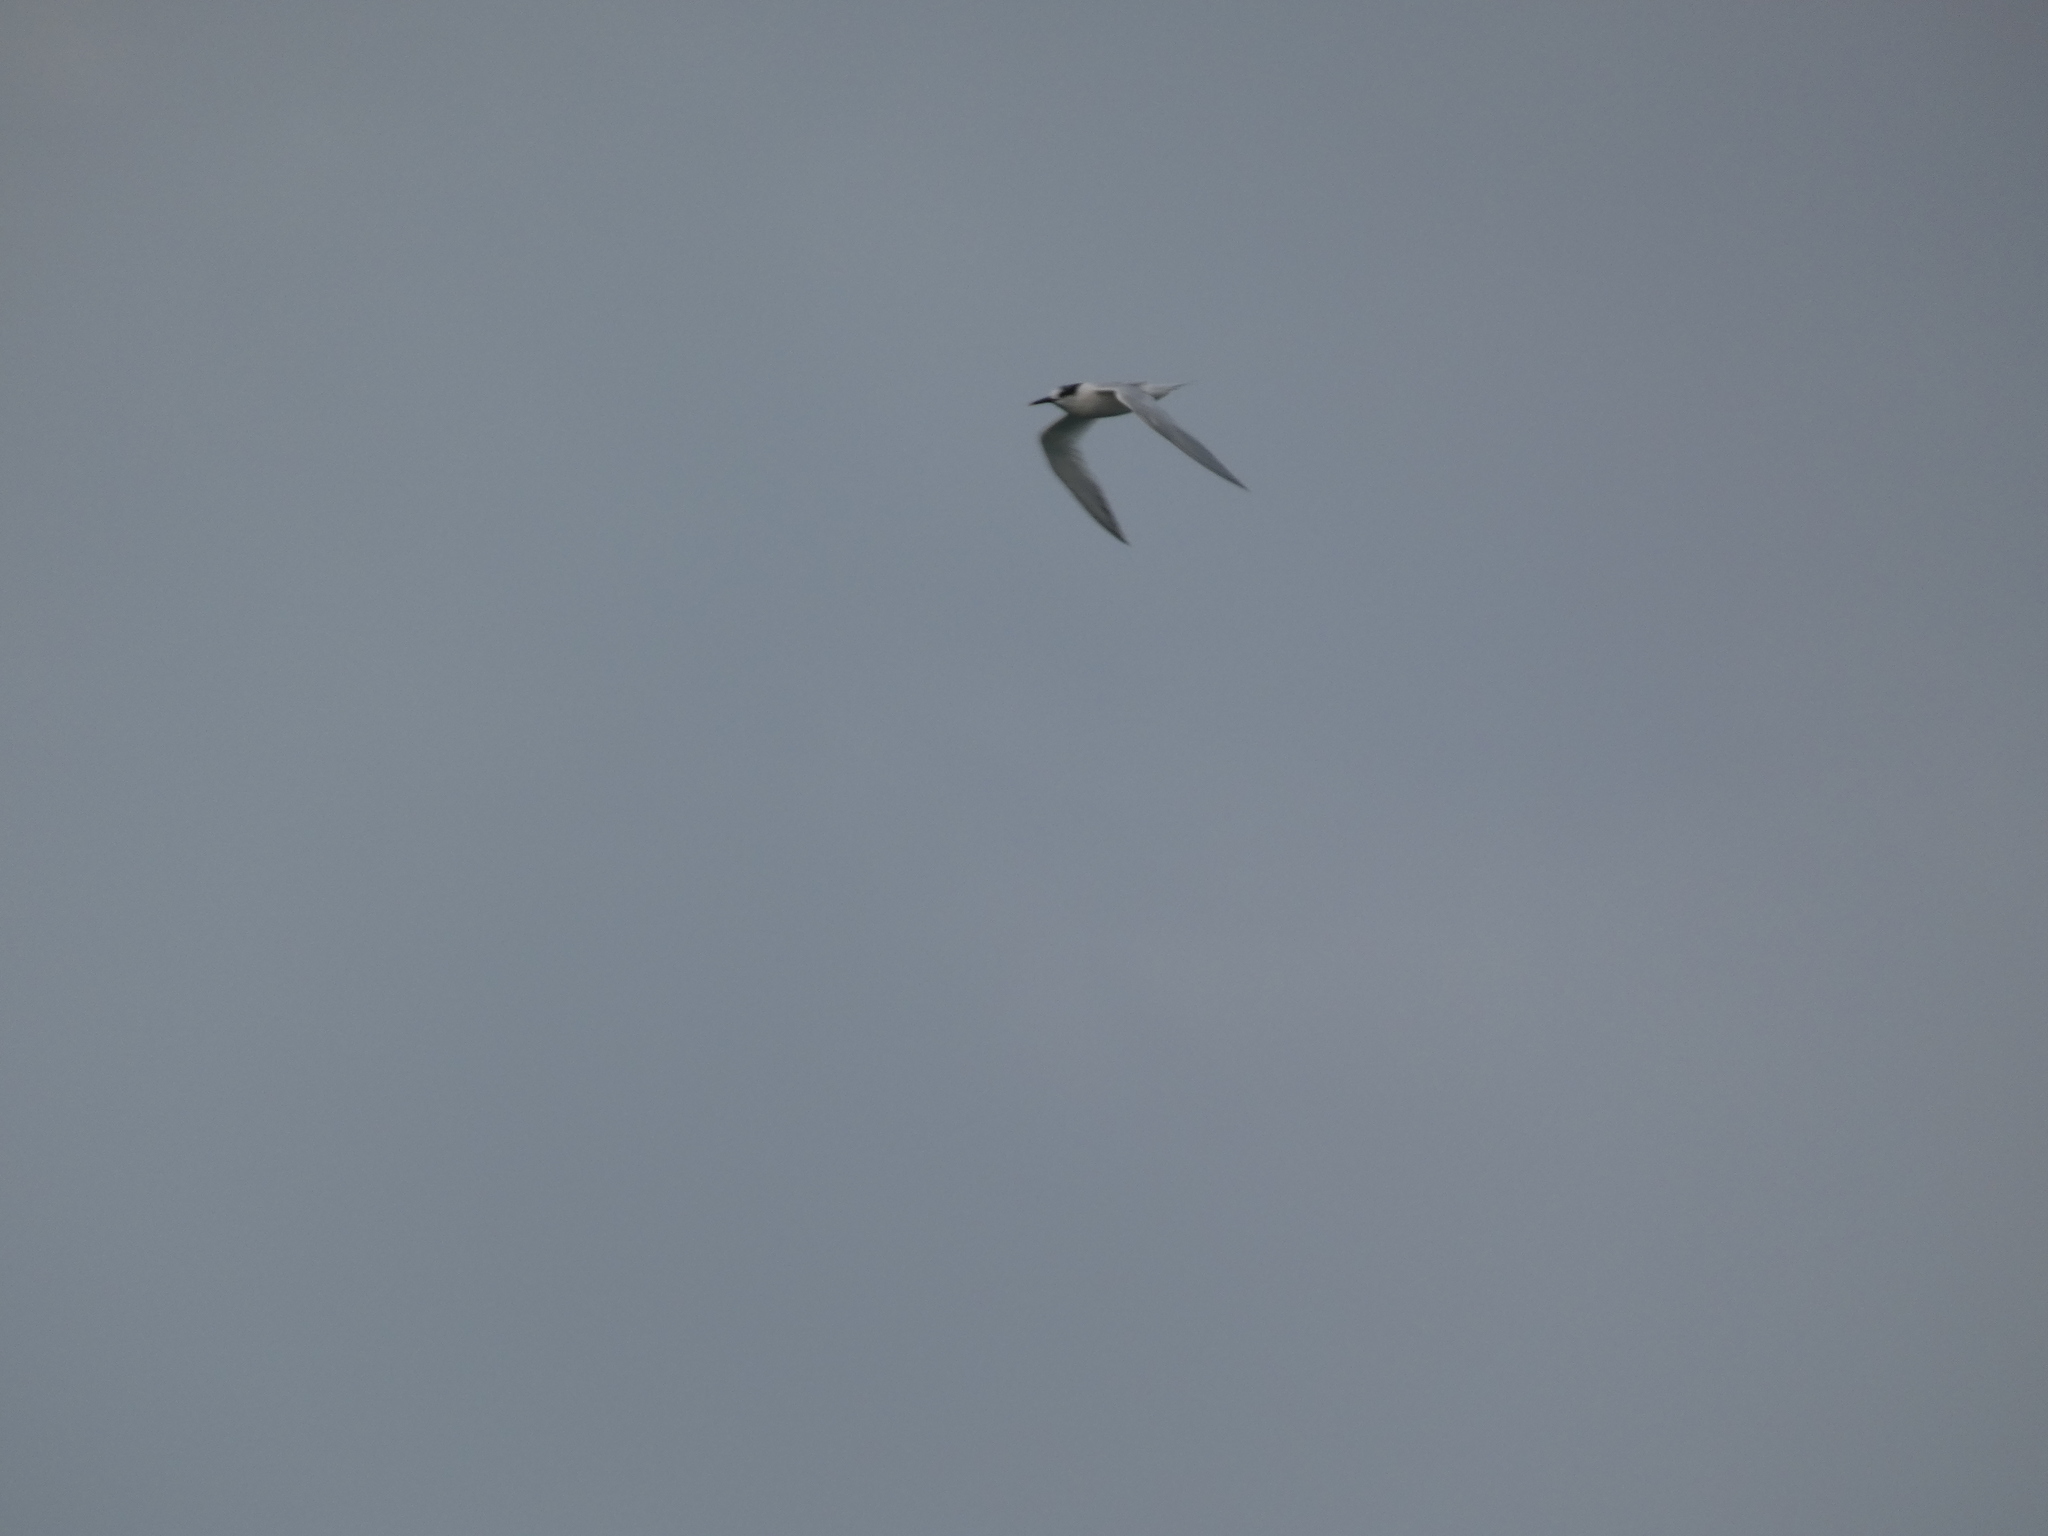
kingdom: Animalia
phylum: Chordata
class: Aves
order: Charadriiformes
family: Laridae
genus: Thalasseus
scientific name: Thalasseus sandvicensis
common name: Sandwich tern
